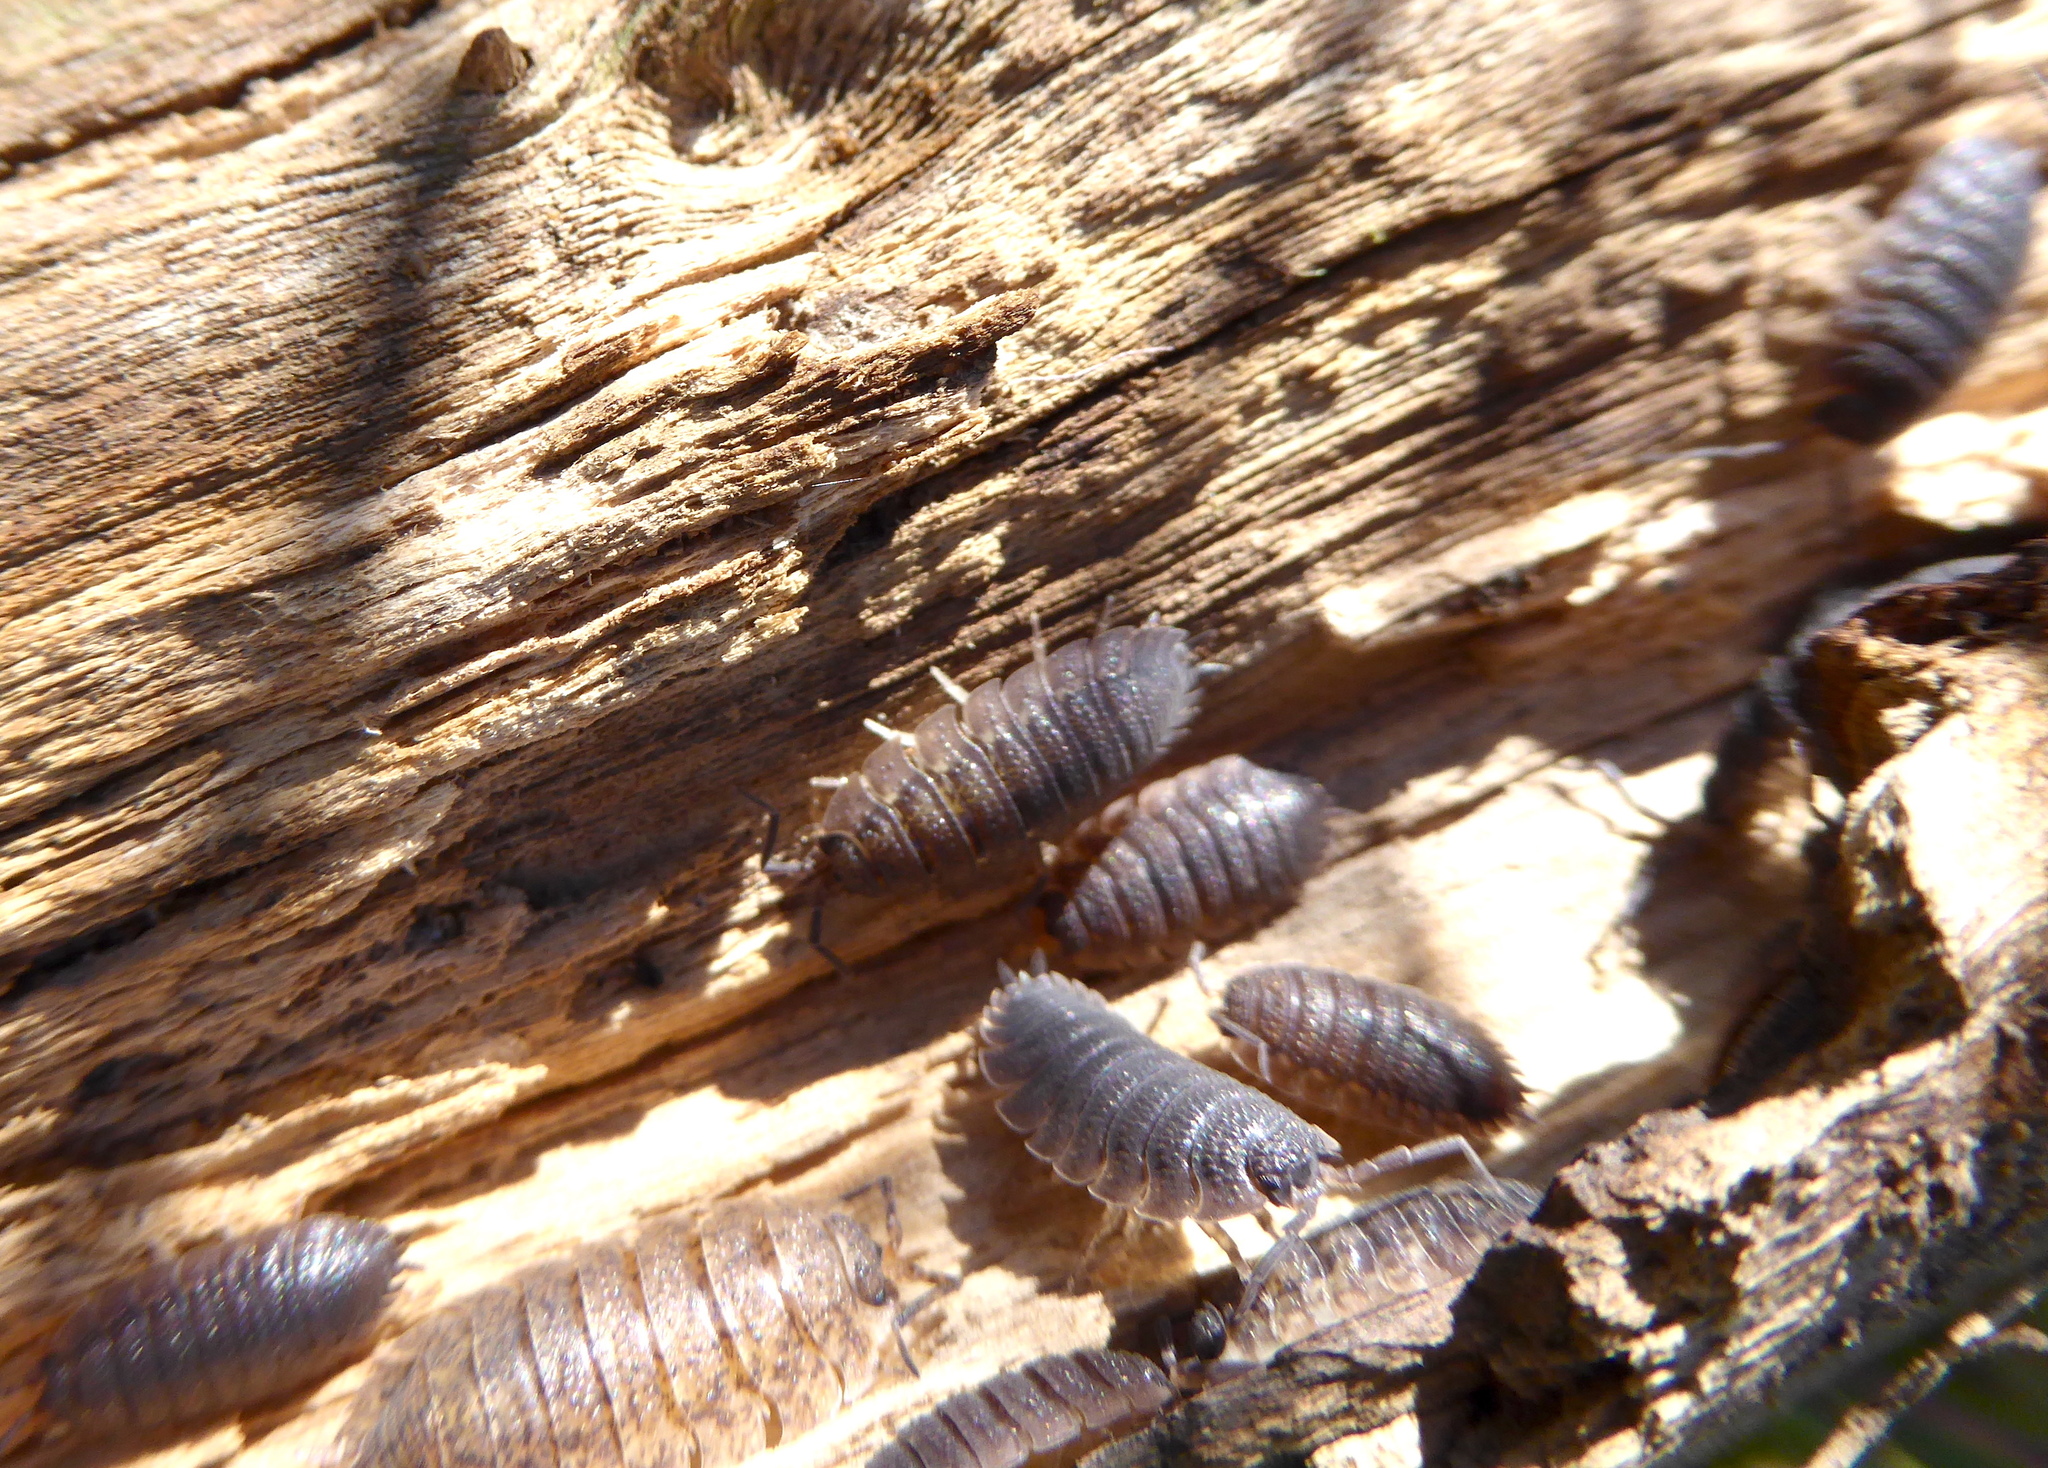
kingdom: Animalia
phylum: Arthropoda
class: Malacostraca
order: Isopoda
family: Porcellionidae
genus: Porcellio
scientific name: Porcellio scaber
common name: Common rough woodlouse
